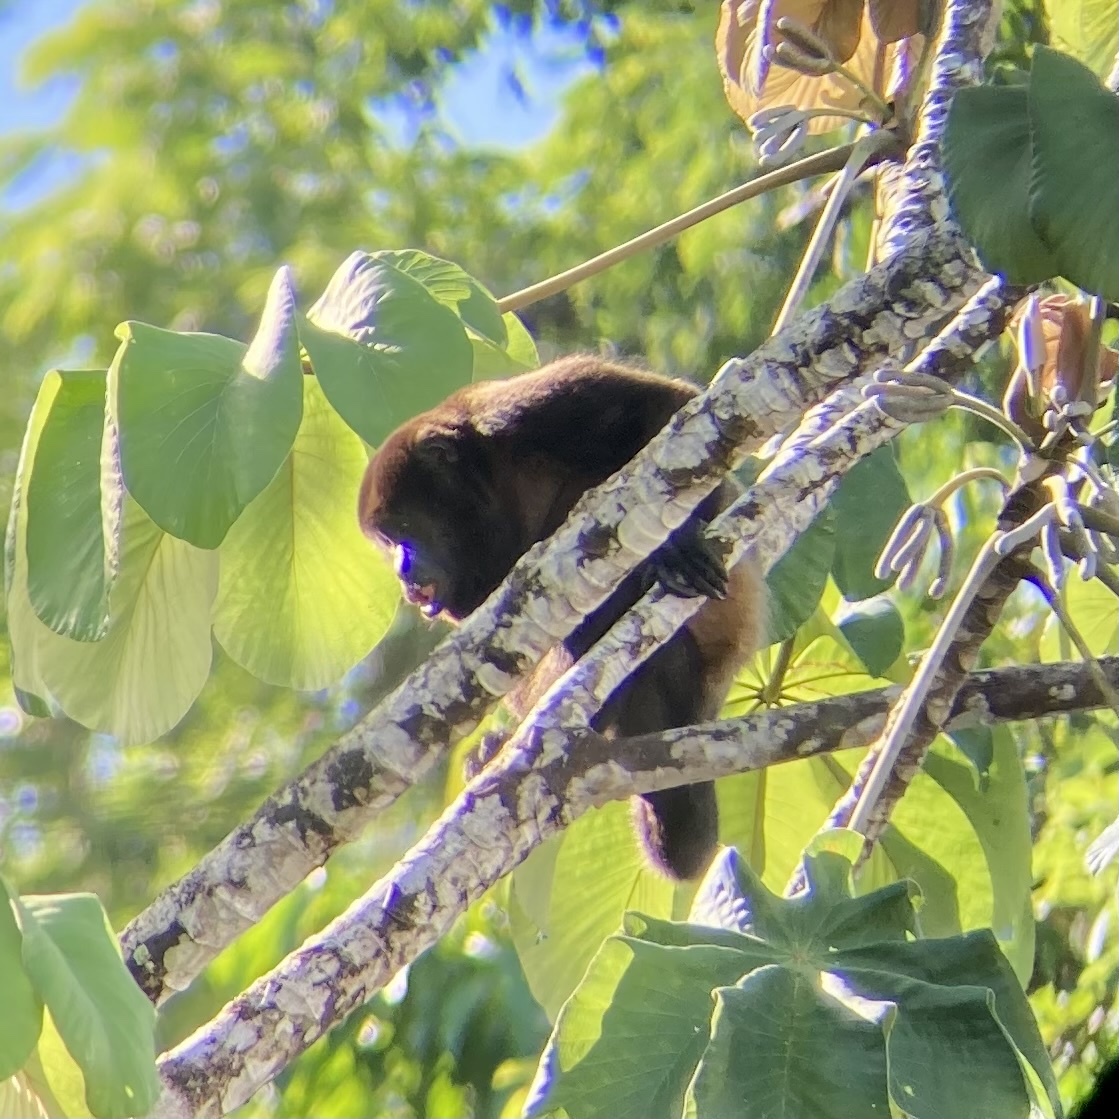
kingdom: Animalia
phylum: Chordata
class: Mammalia
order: Primates
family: Atelidae
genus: Alouatta
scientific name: Alouatta palliata
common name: Mantled howler
